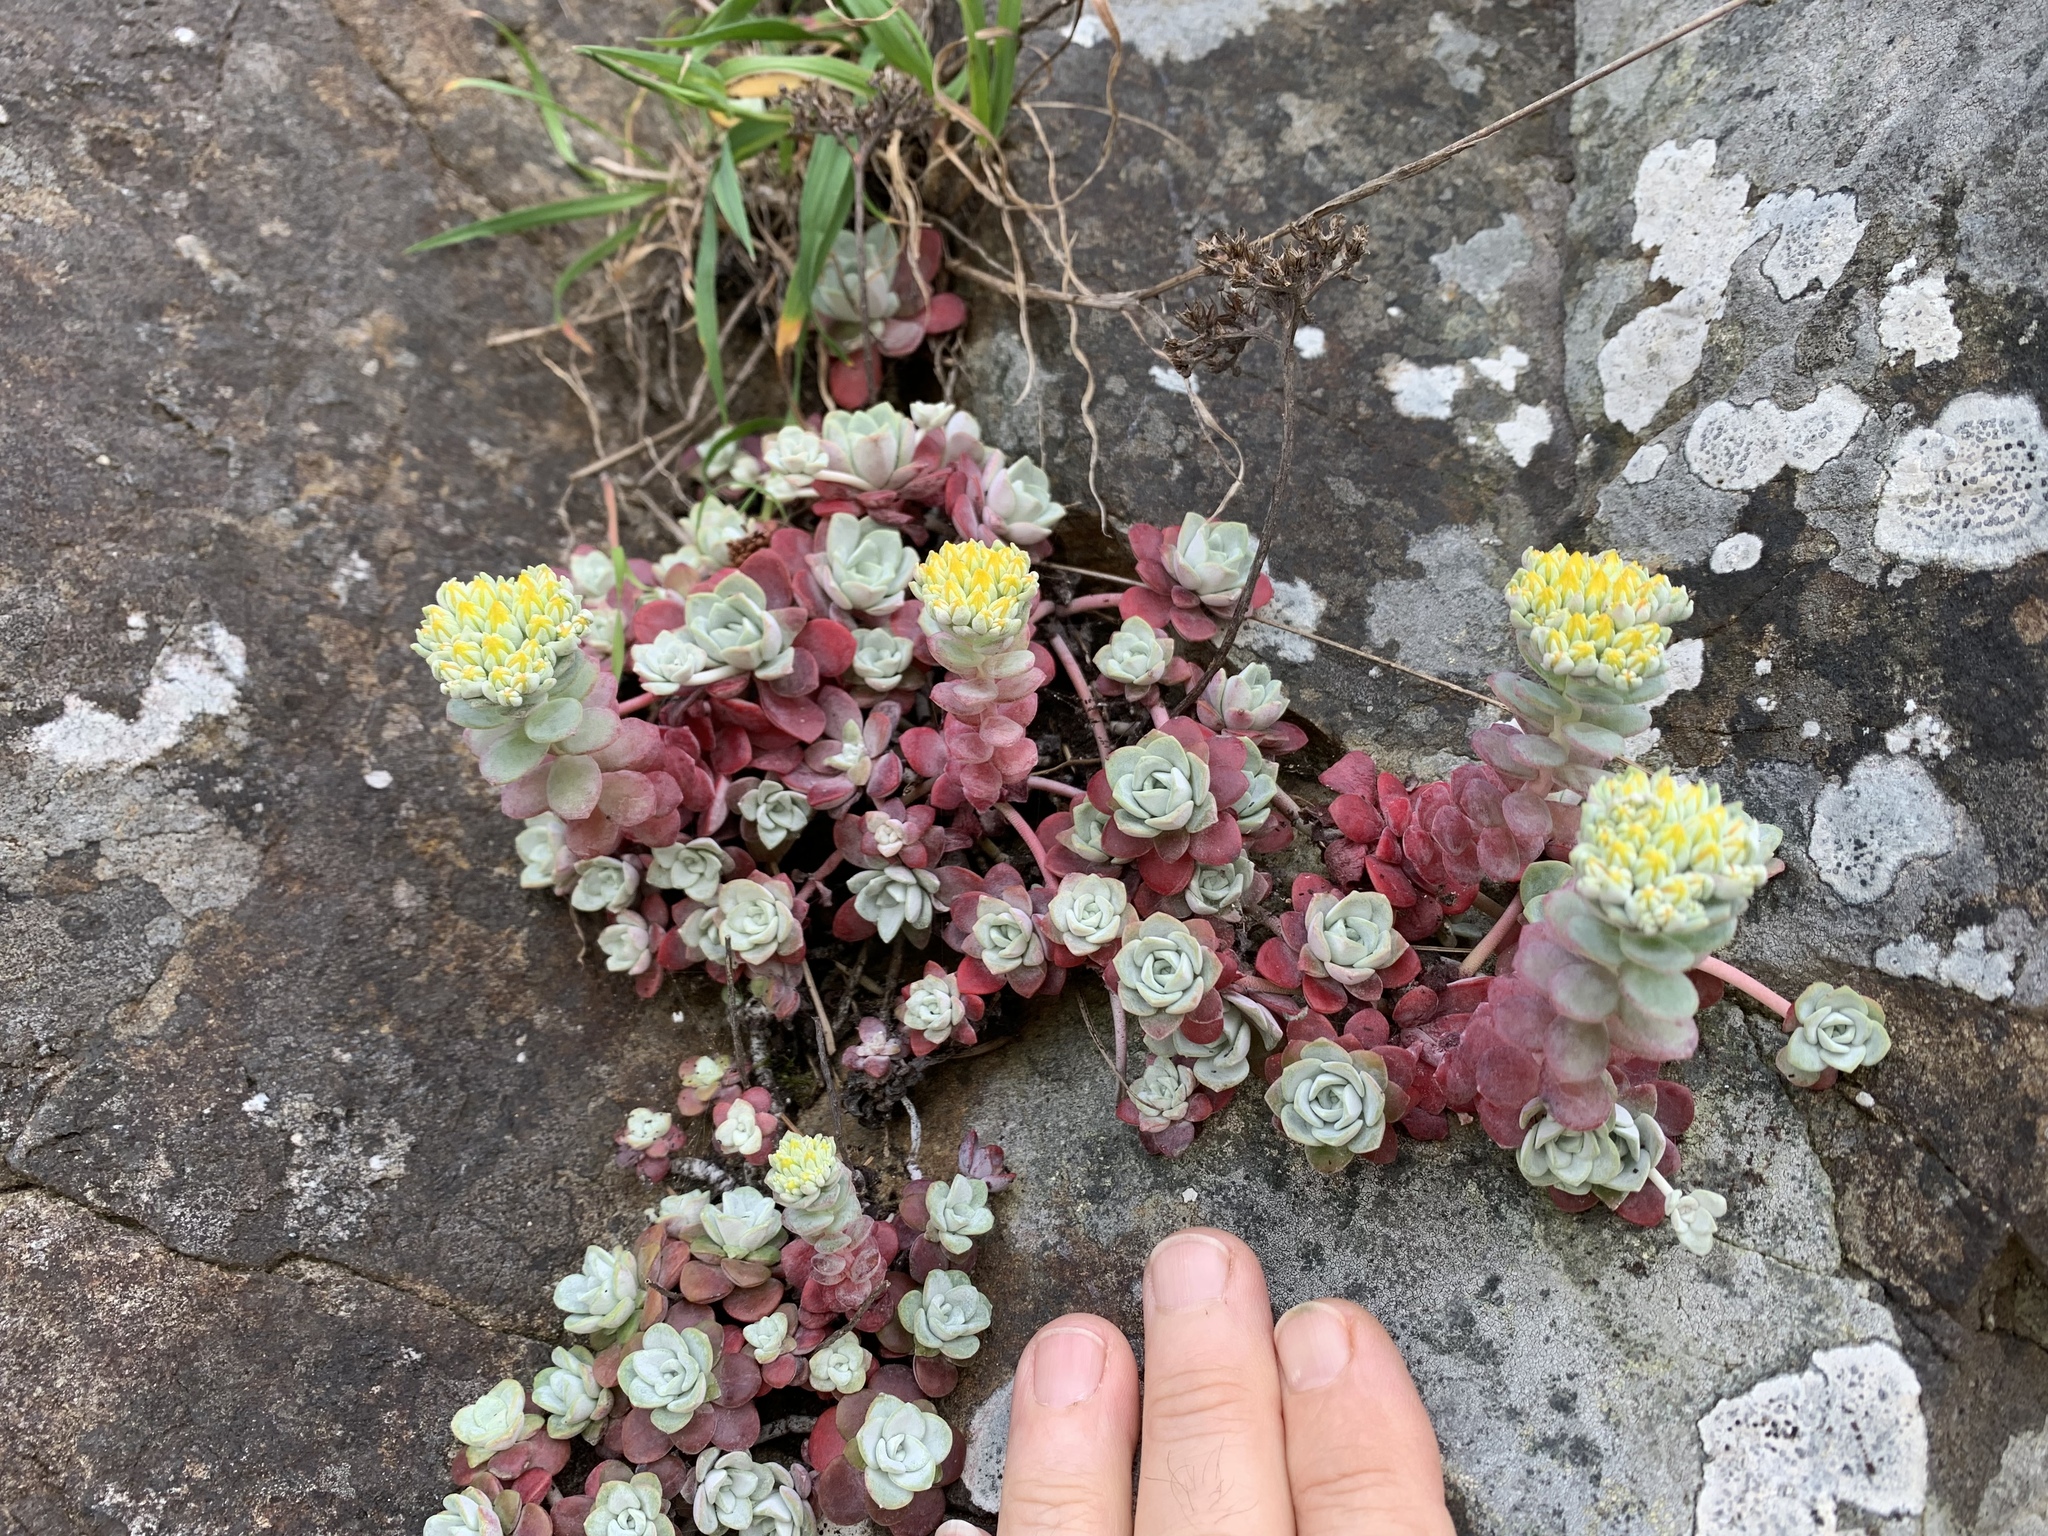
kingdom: Plantae
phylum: Tracheophyta
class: Magnoliopsida
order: Saxifragales
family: Crassulaceae
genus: Sedum
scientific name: Sedum spathulifolium
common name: Colorado stonecrop
